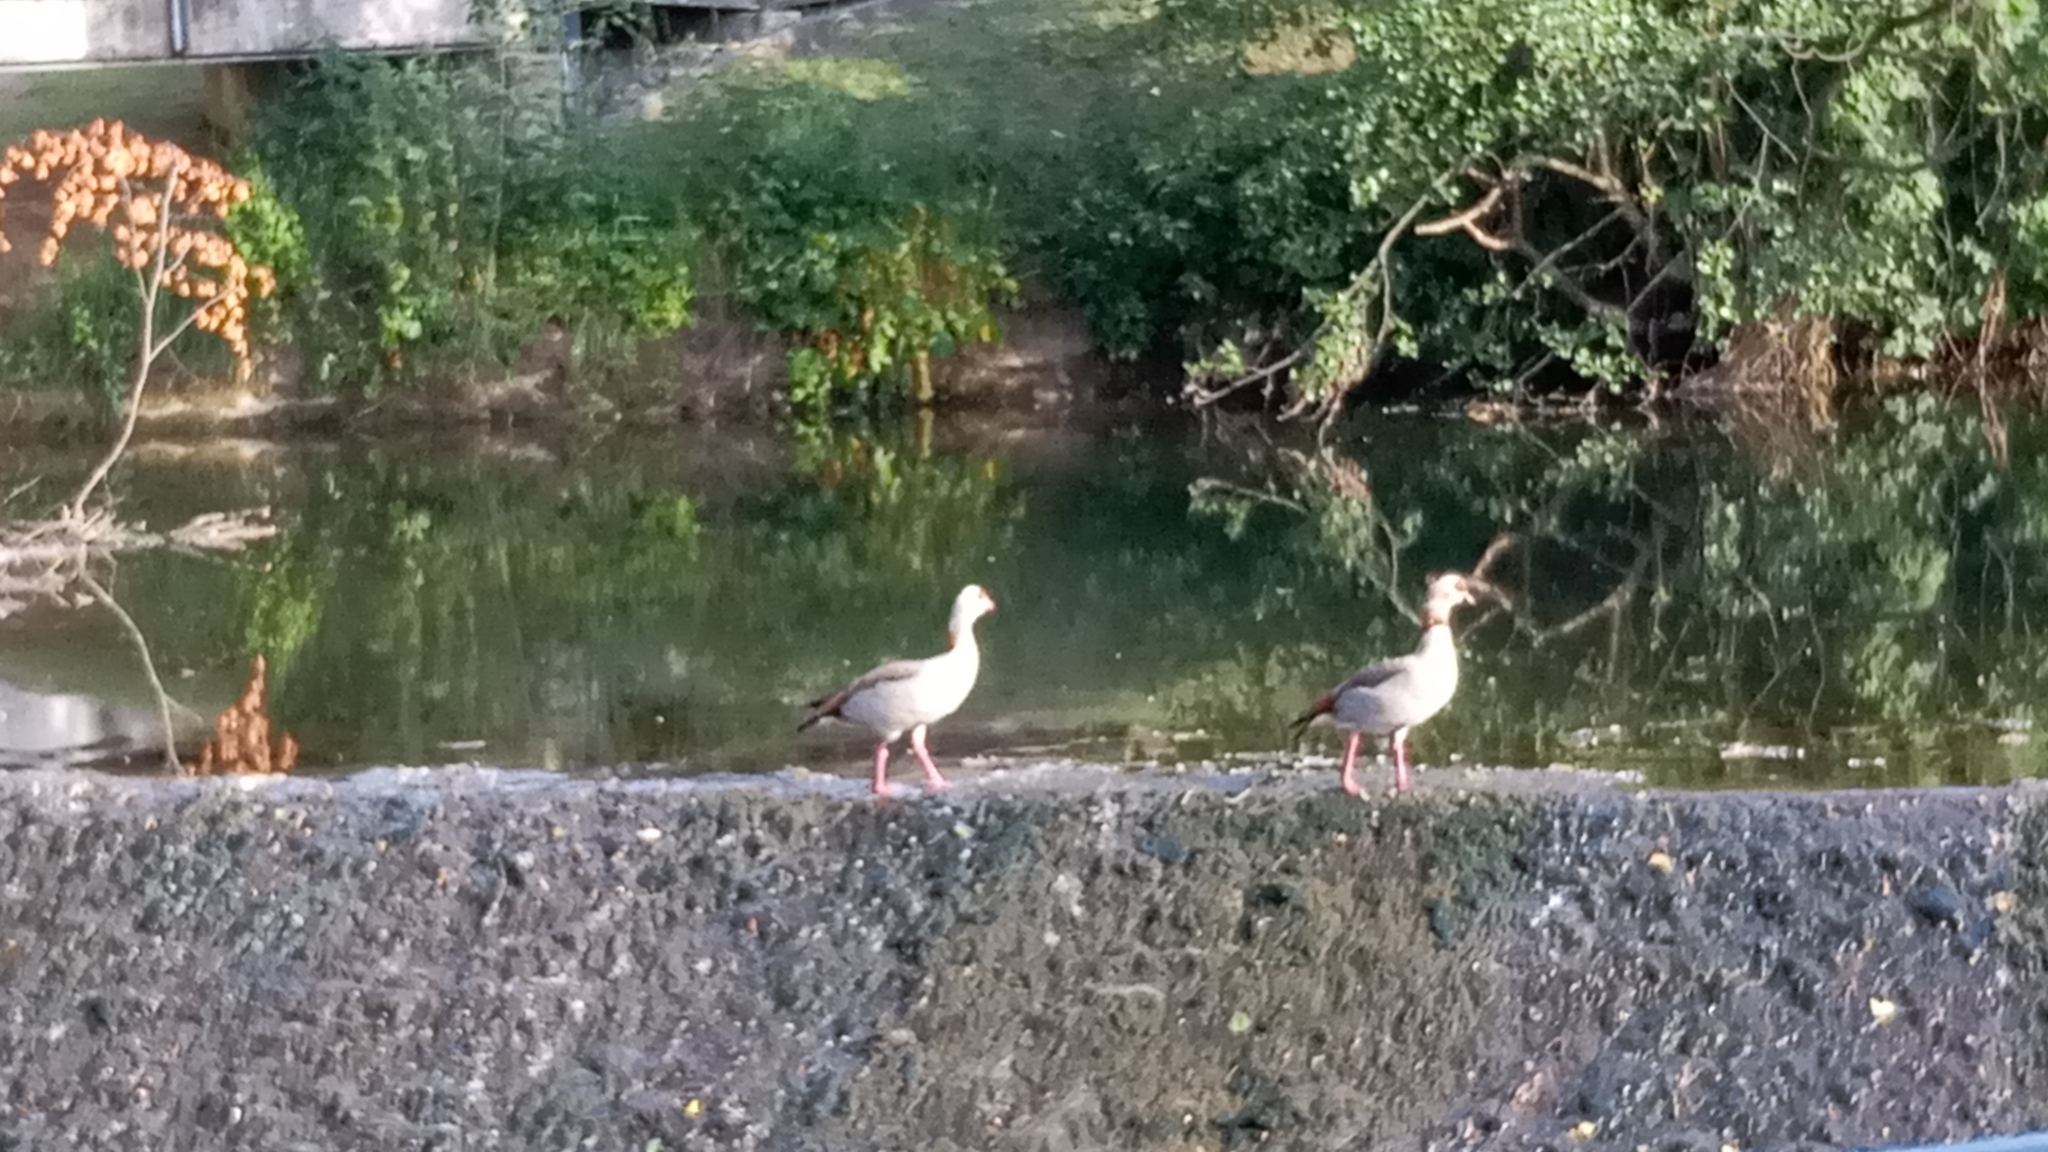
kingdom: Animalia
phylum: Chordata
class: Aves
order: Anseriformes
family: Anatidae
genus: Alopochen
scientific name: Alopochen aegyptiaca
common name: Egyptian goose
